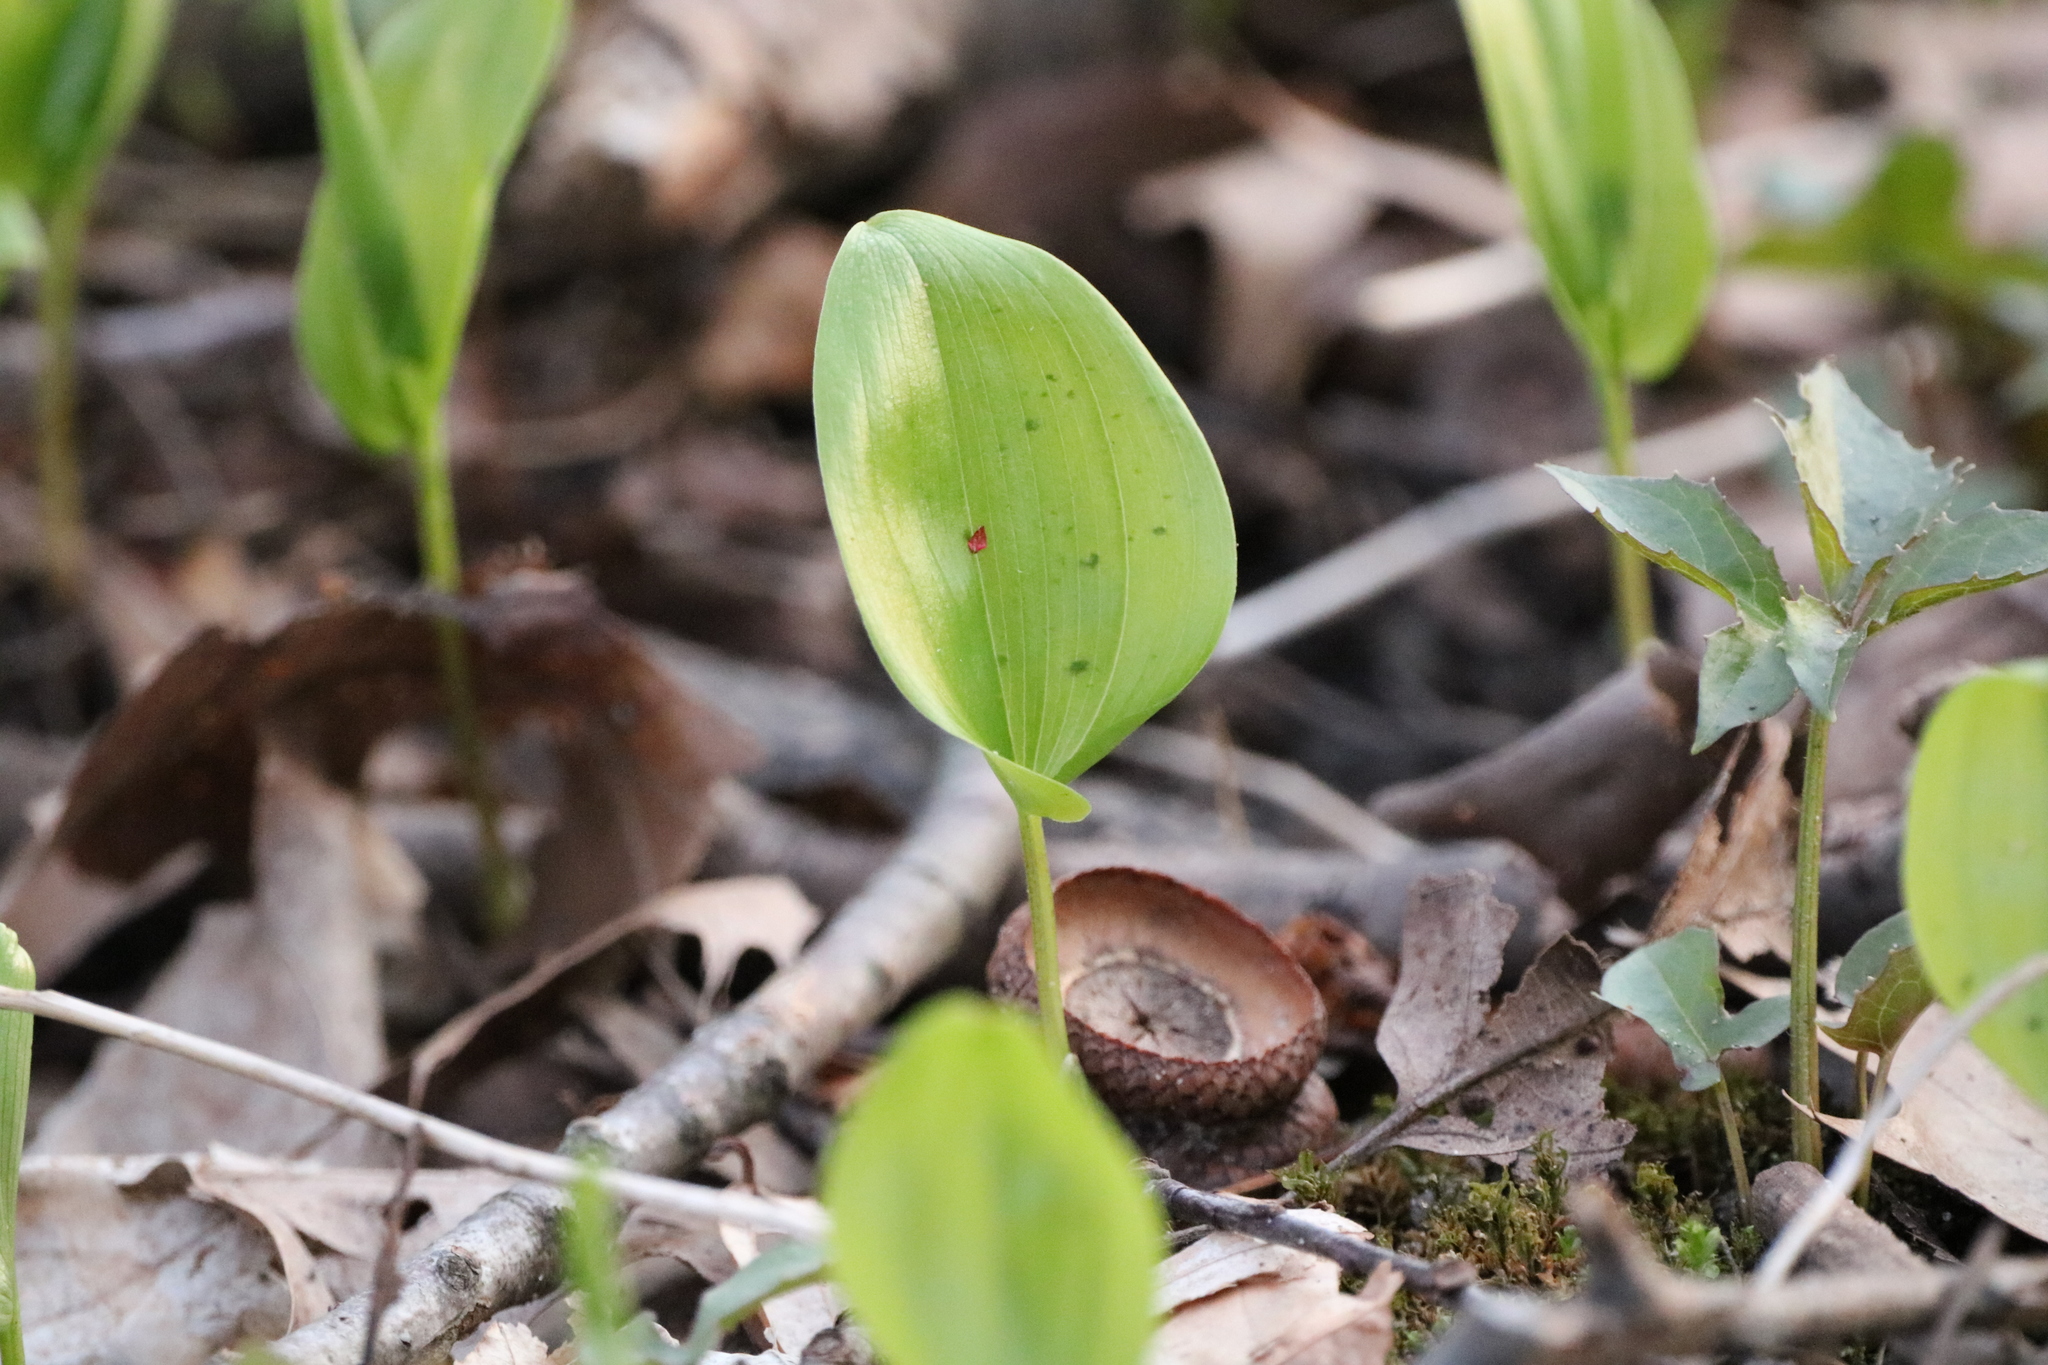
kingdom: Plantae
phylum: Tracheophyta
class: Liliopsida
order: Asparagales
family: Asparagaceae
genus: Maianthemum
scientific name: Maianthemum canadense
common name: False lily-of-the-valley
